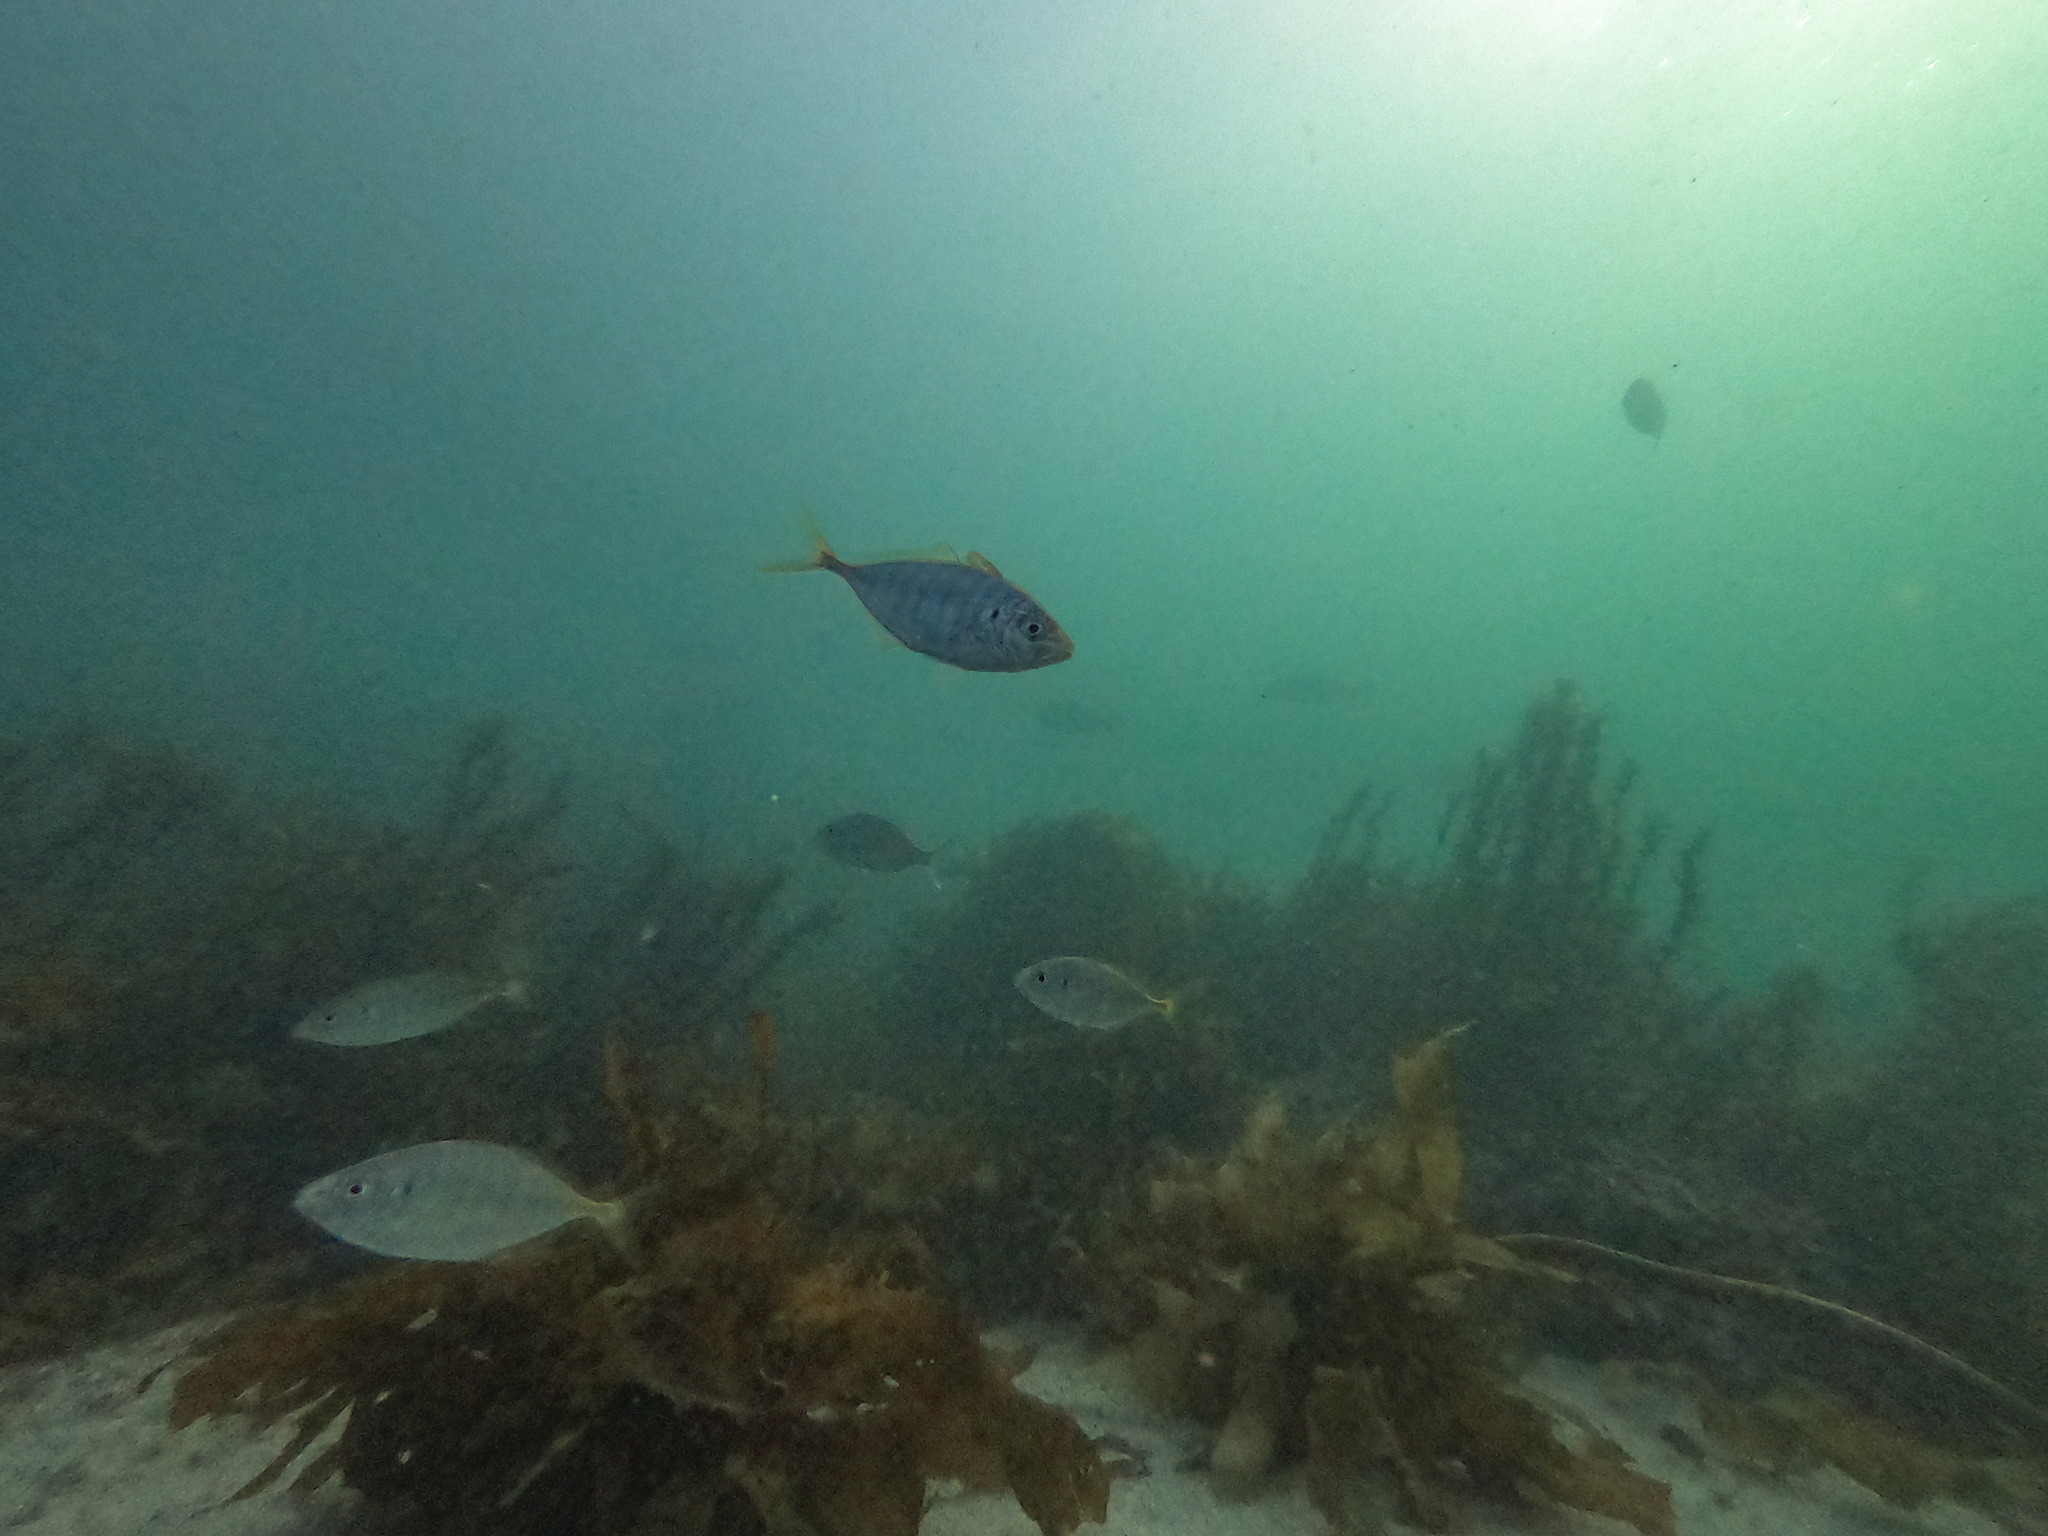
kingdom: Animalia
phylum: Chordata
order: Perciformes
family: Carangidae
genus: Pseudocaranx
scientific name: Pseudocaranx dentex
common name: White trevally
